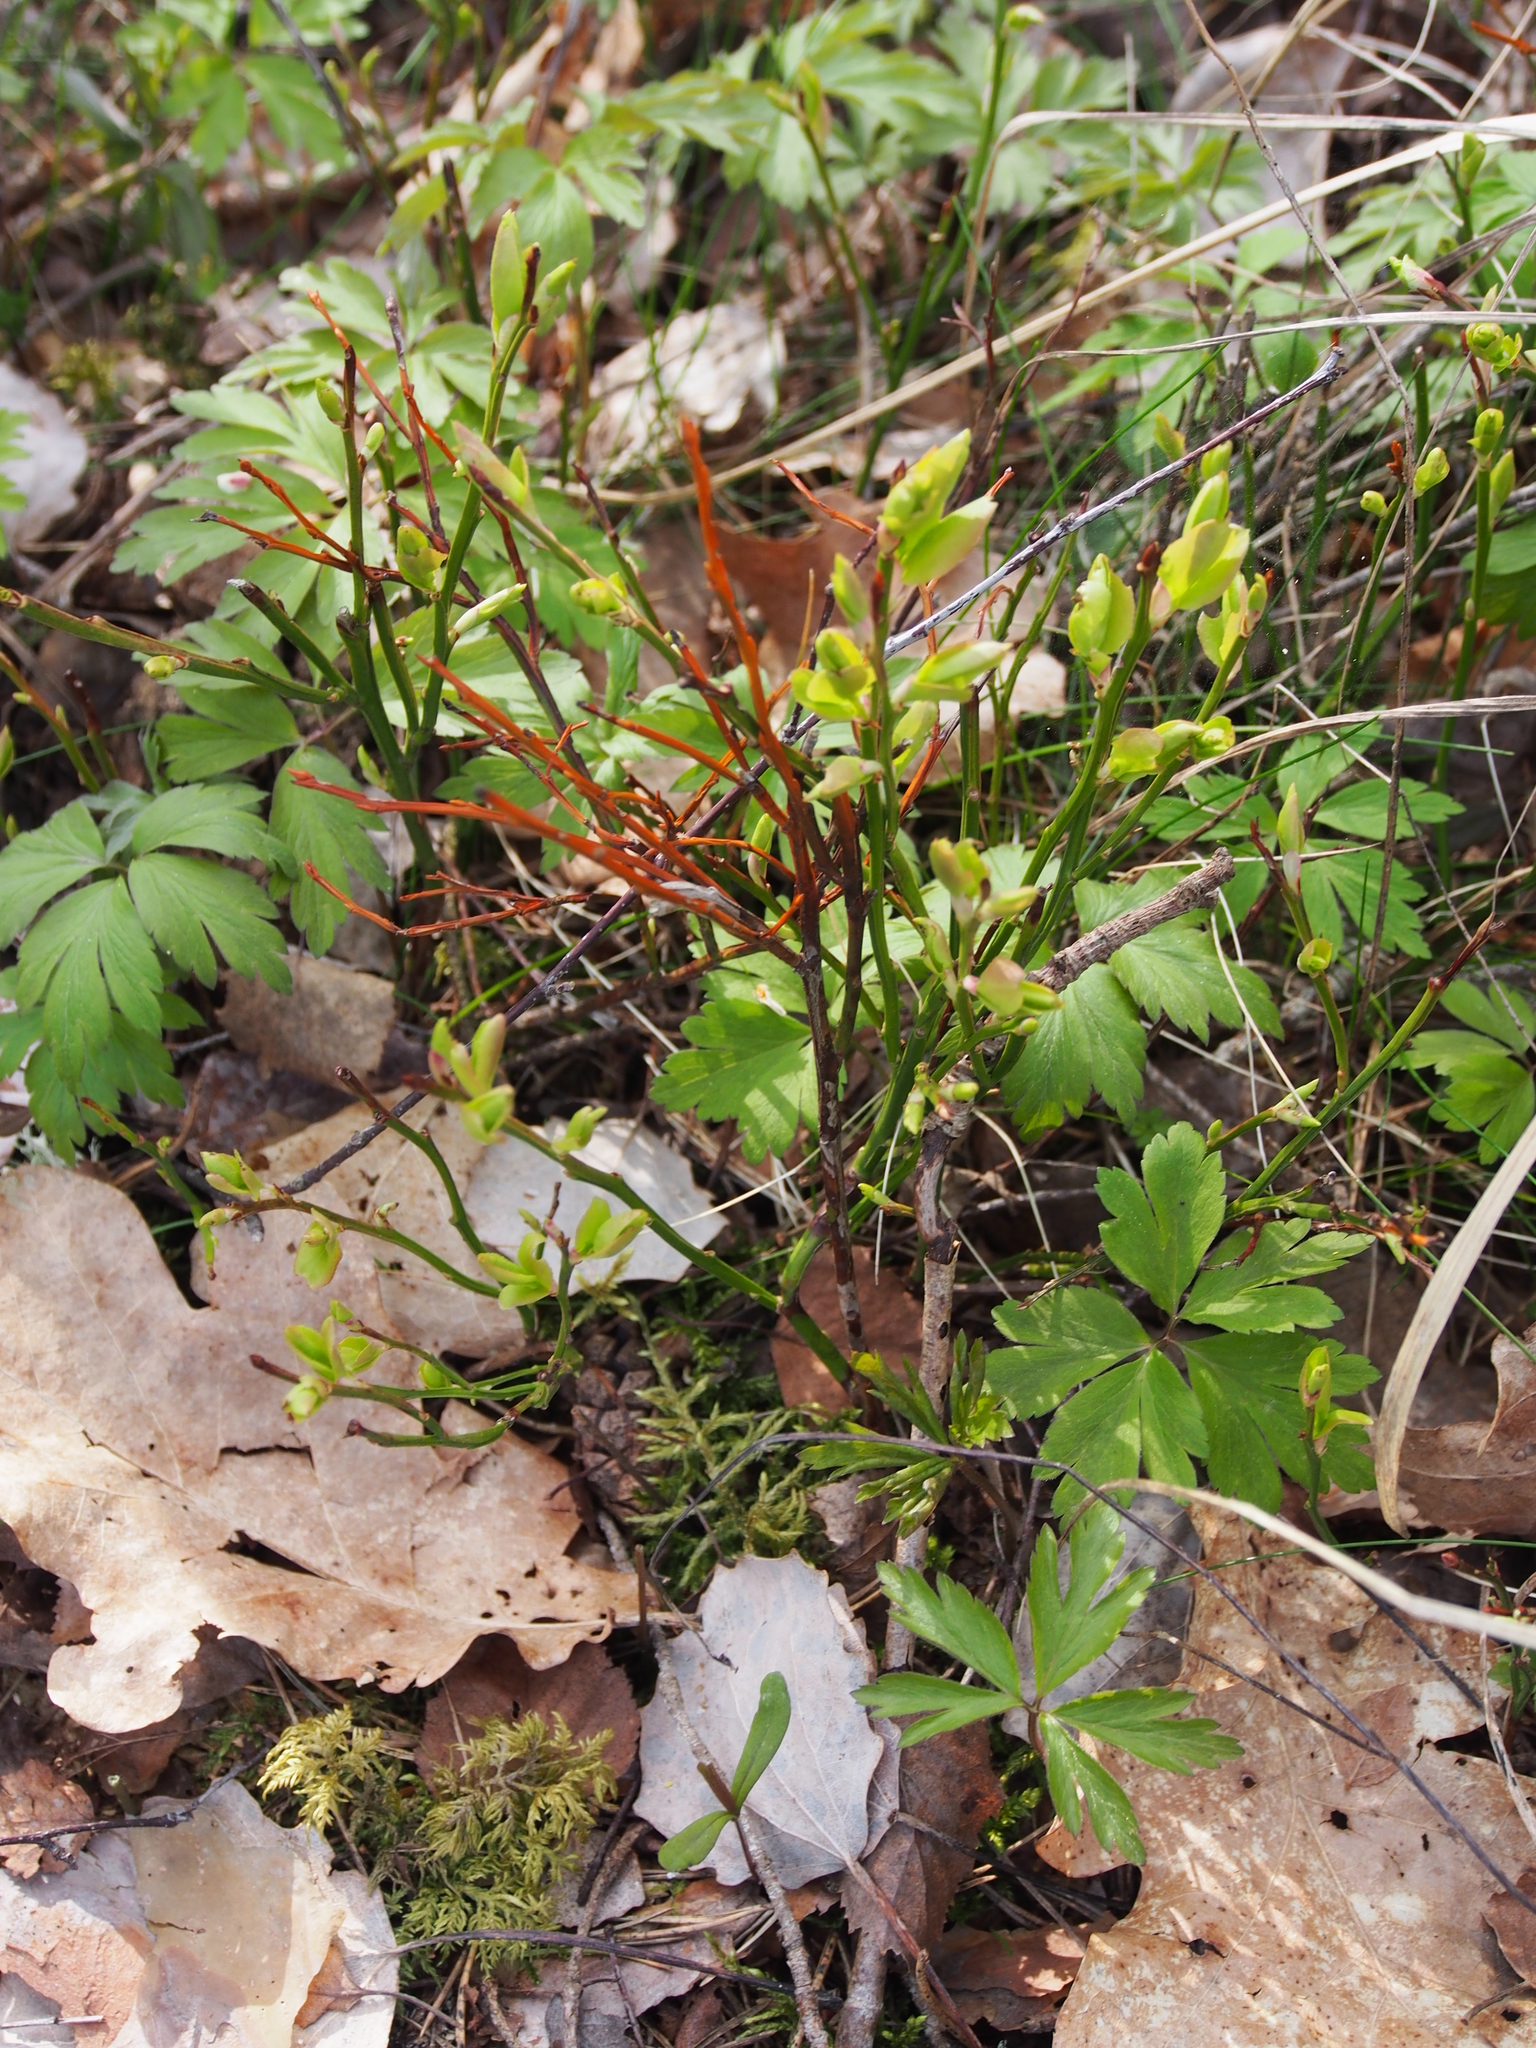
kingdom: Plantae
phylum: Tracheophyta
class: Magnoliopsida
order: Ericales
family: Ericaceae
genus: Vaccinium
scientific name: Vaccinium myrtillus
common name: Bilberry
